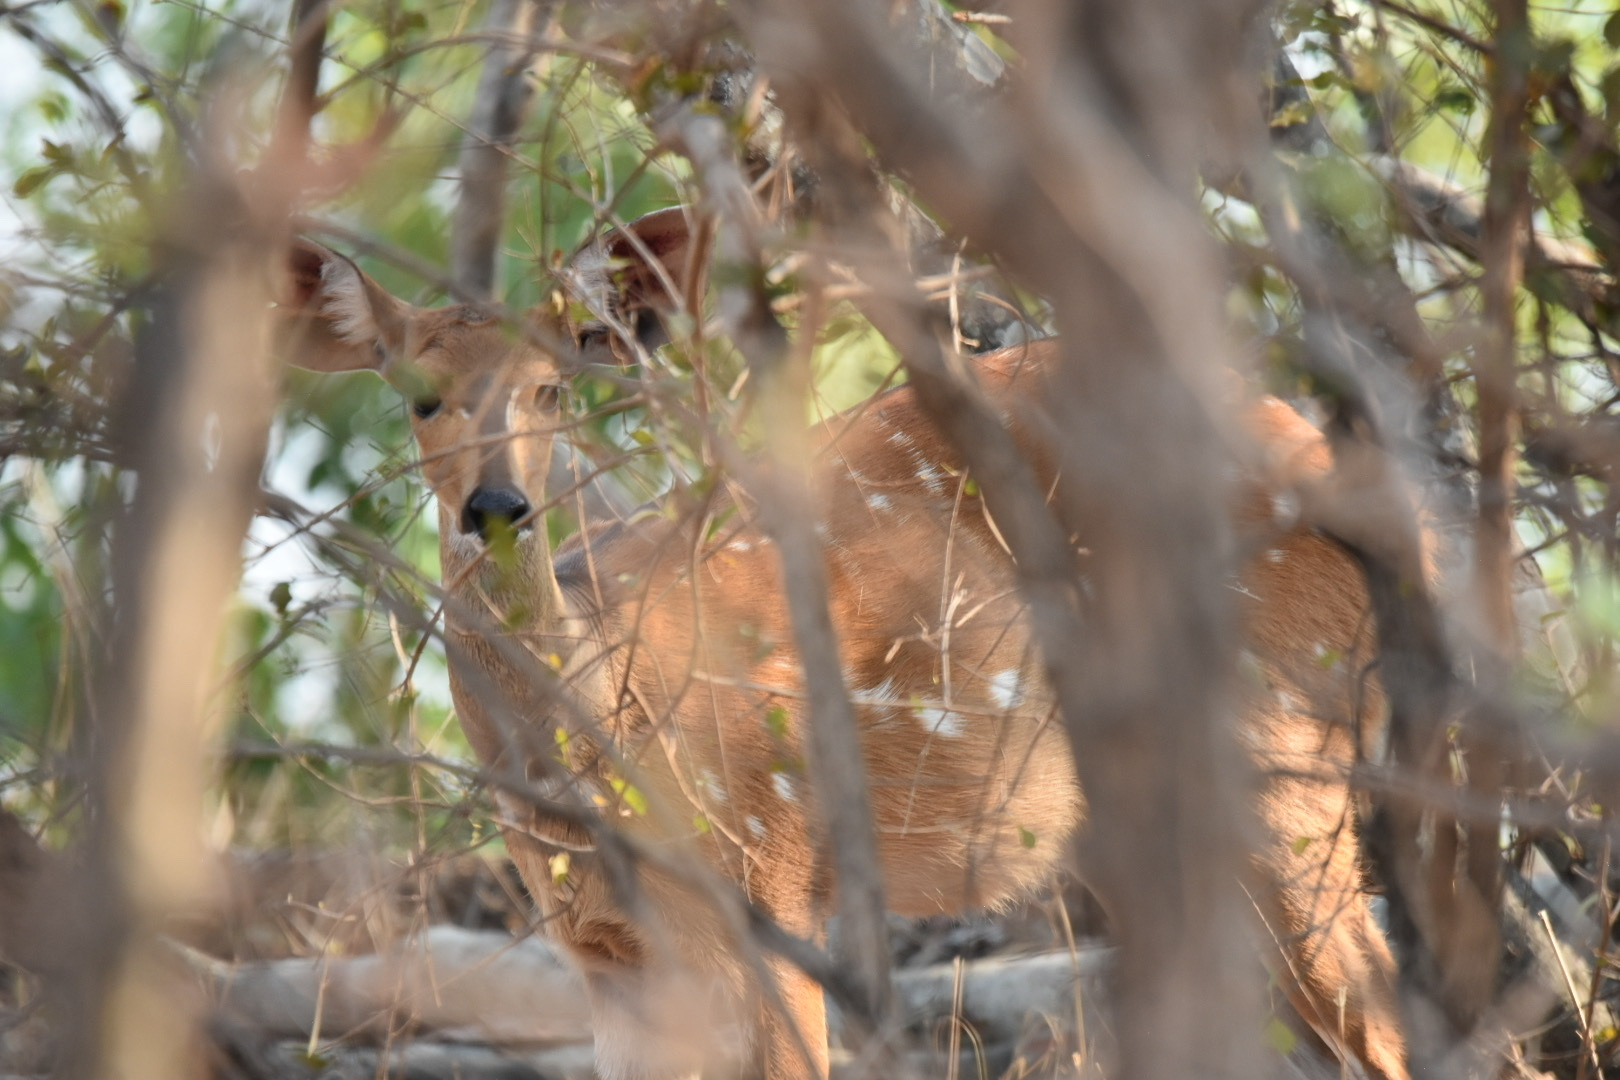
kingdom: Animalia
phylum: Chordata
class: Mammalia
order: Artiodactyla
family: Bovidae
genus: Tragelaphus
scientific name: Tragelaphus scriptus
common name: Bushbuck
